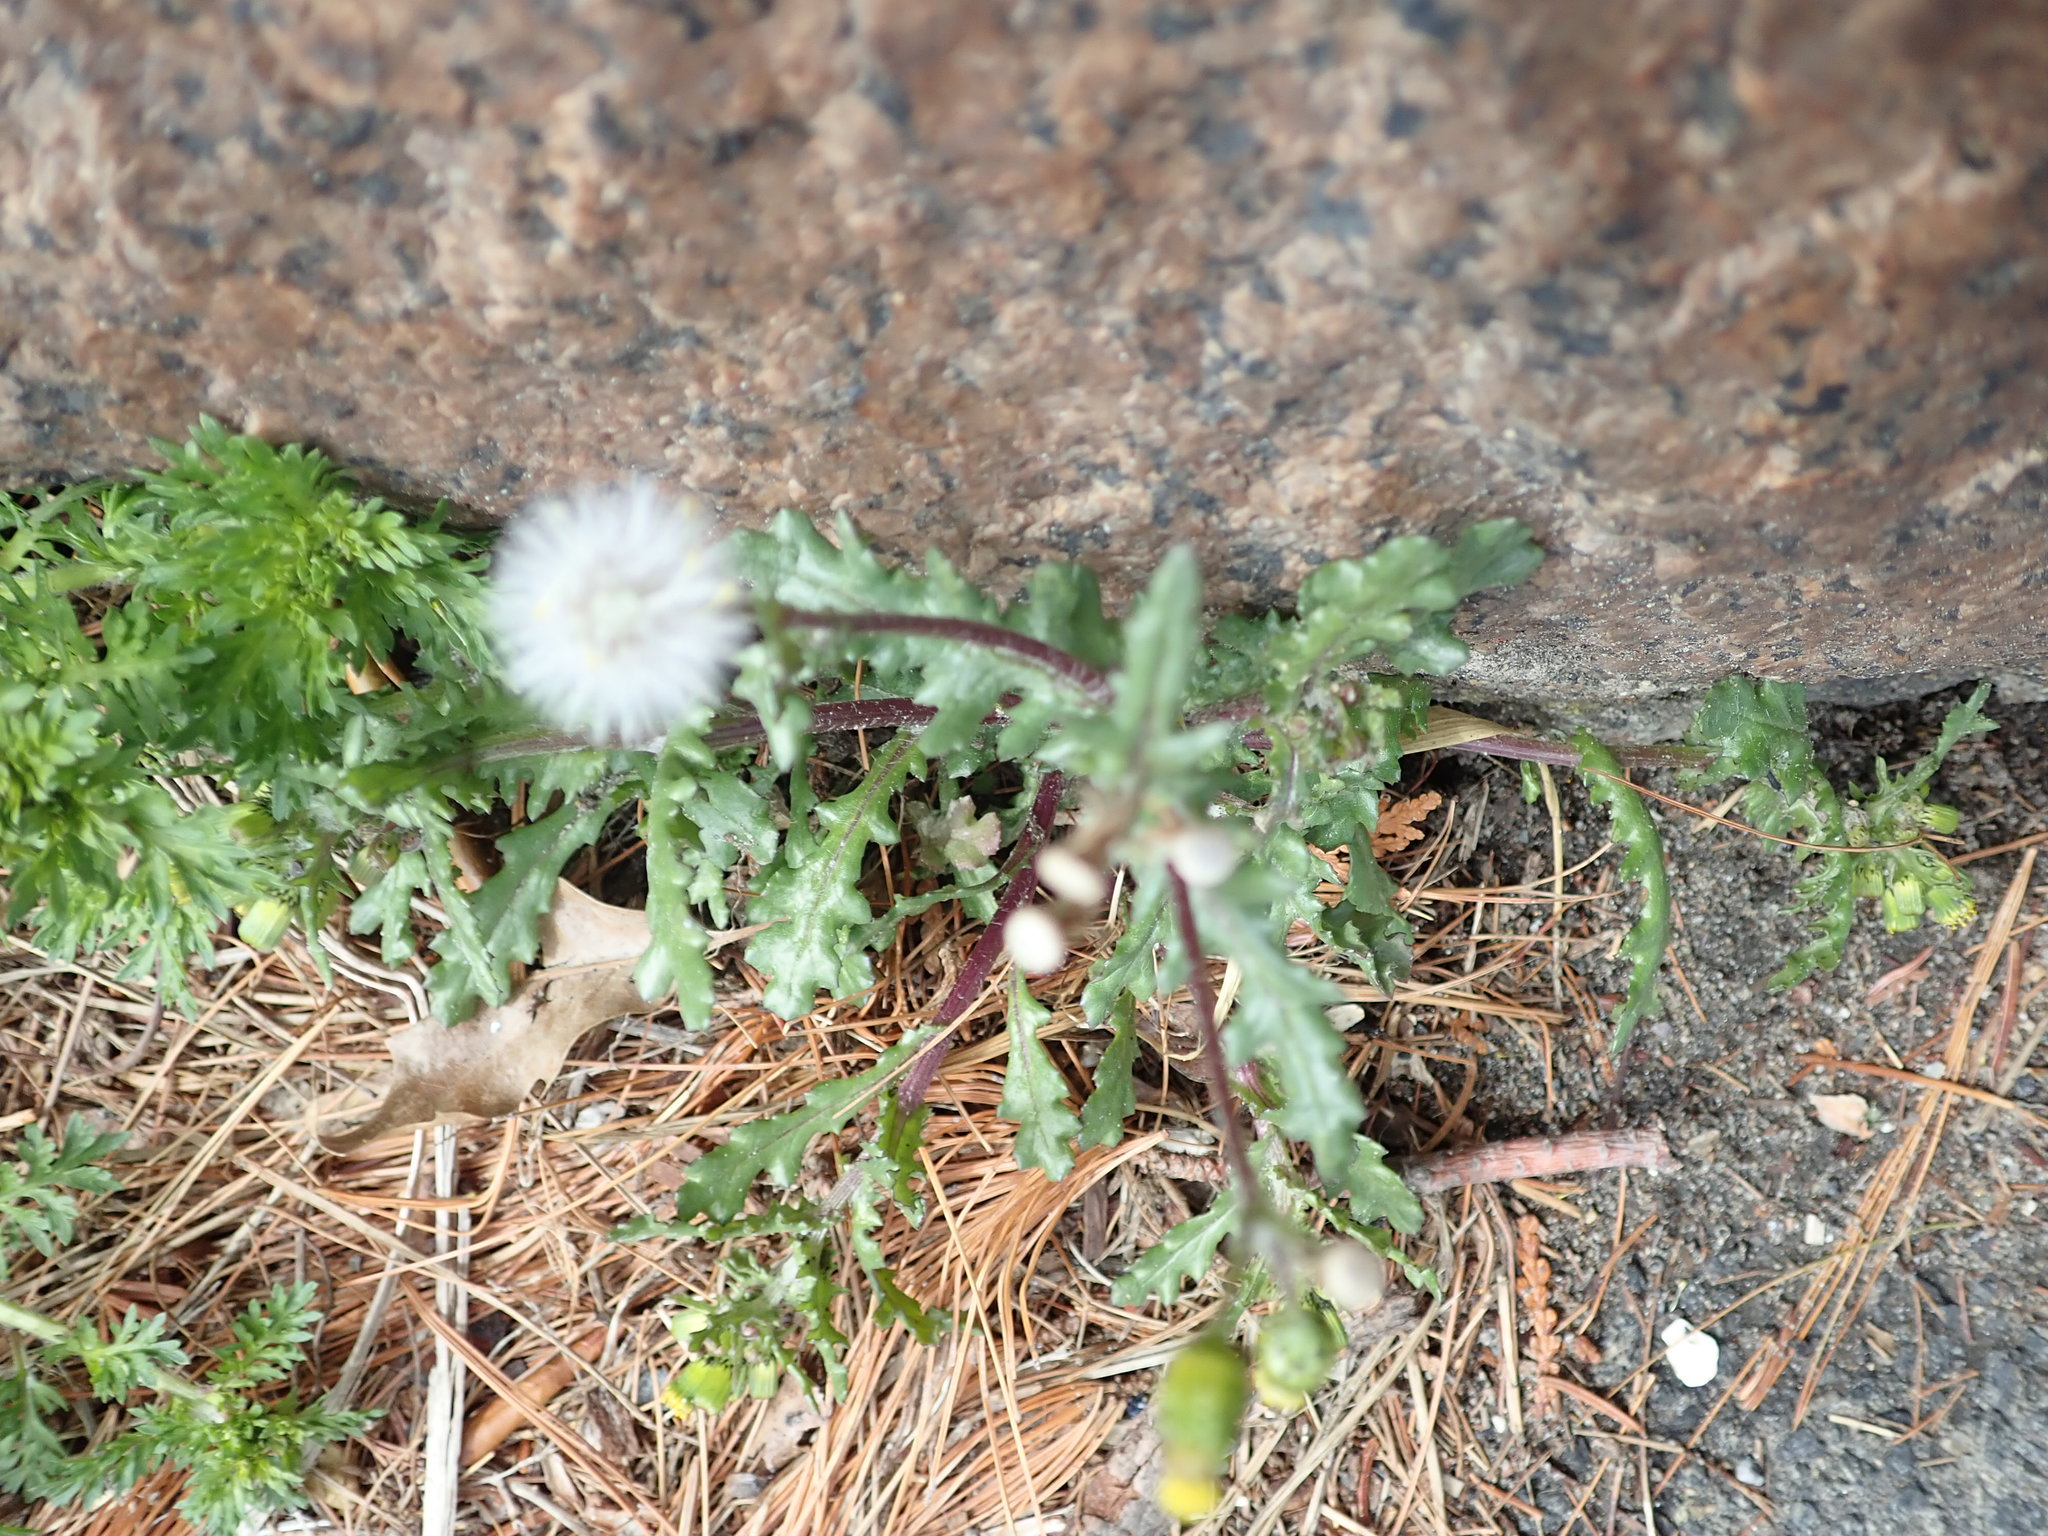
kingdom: Plantae
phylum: Tracheophyta
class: Magnoliopsida
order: Asterales
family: Asteraceae
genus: Senecio
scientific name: Senecio vulgaris
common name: Old-man-in-the-spring
